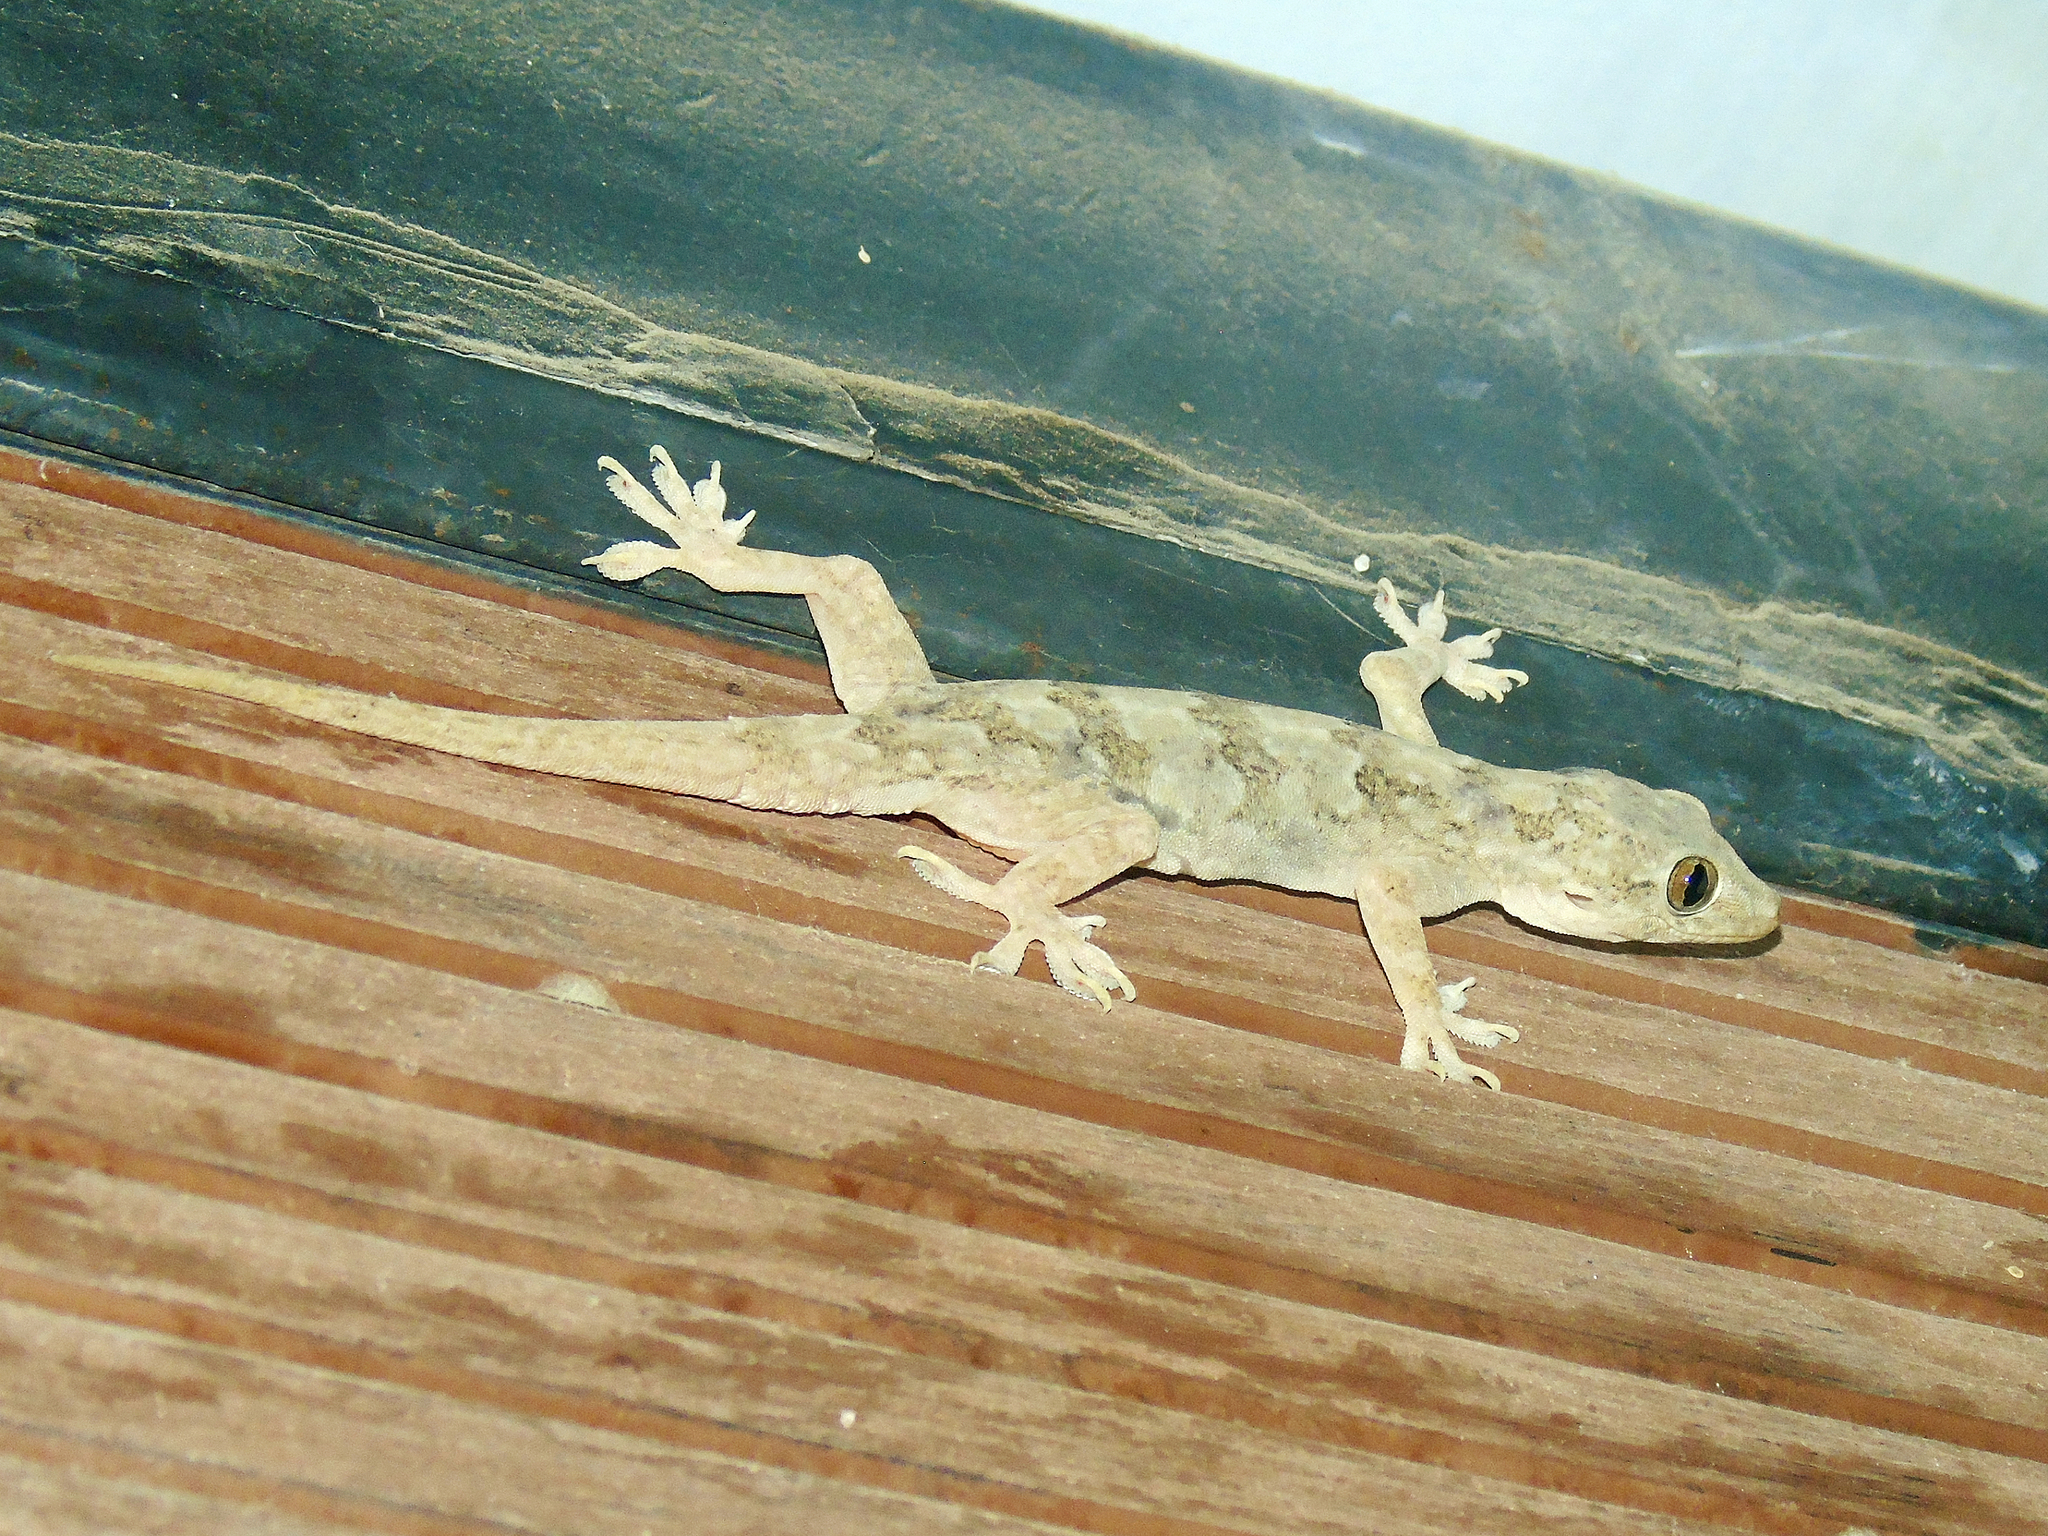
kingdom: Animalia
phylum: Chordata
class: Squamata
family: Gekkonidae
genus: Hemidactylus
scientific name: Hemidactylus flaviviridis
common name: Northern house gecko
